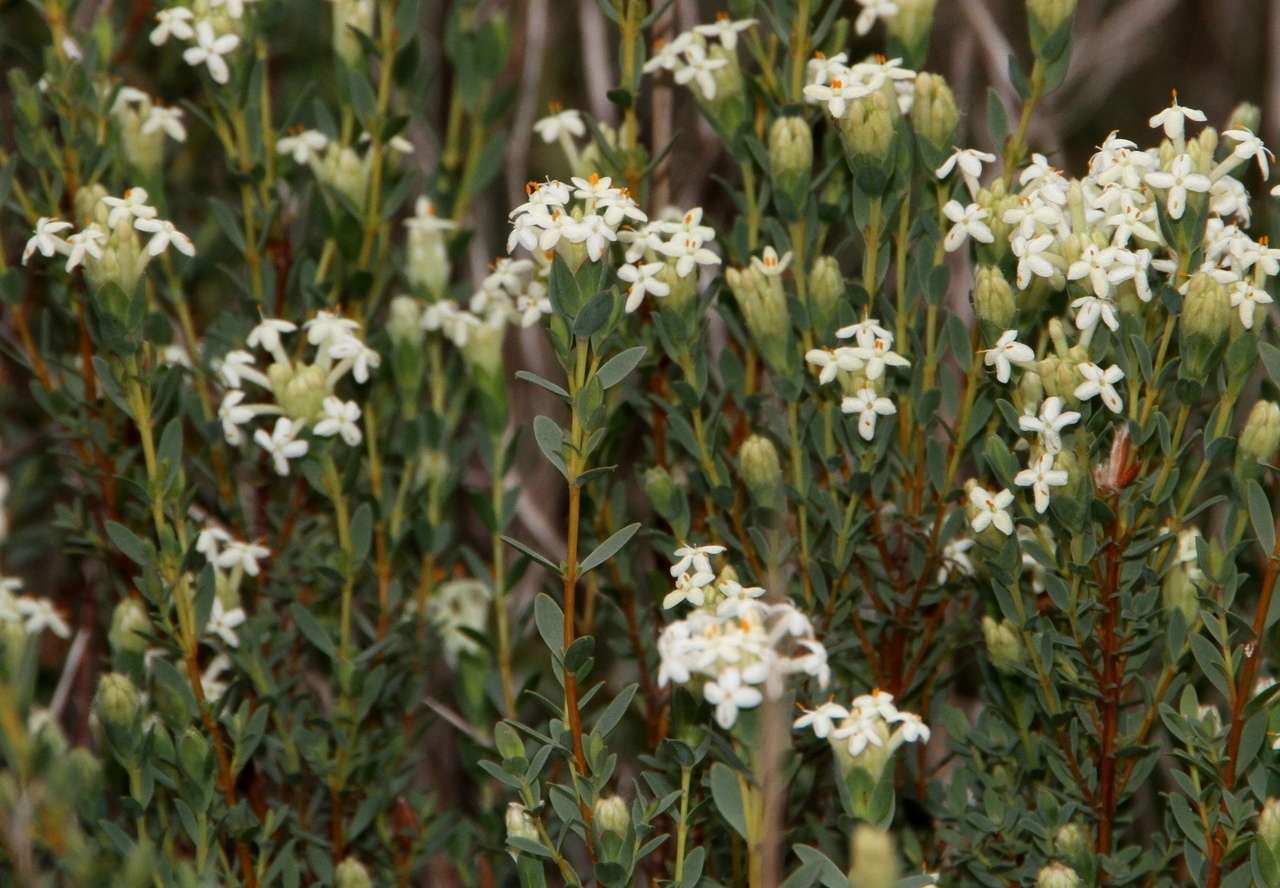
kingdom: Plantae
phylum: Tracheophyta
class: Magnoliopsida
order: Malvales
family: Thymelaeaceae
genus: Pimelea
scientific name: Pimelea glauca
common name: Smooth riceflower
